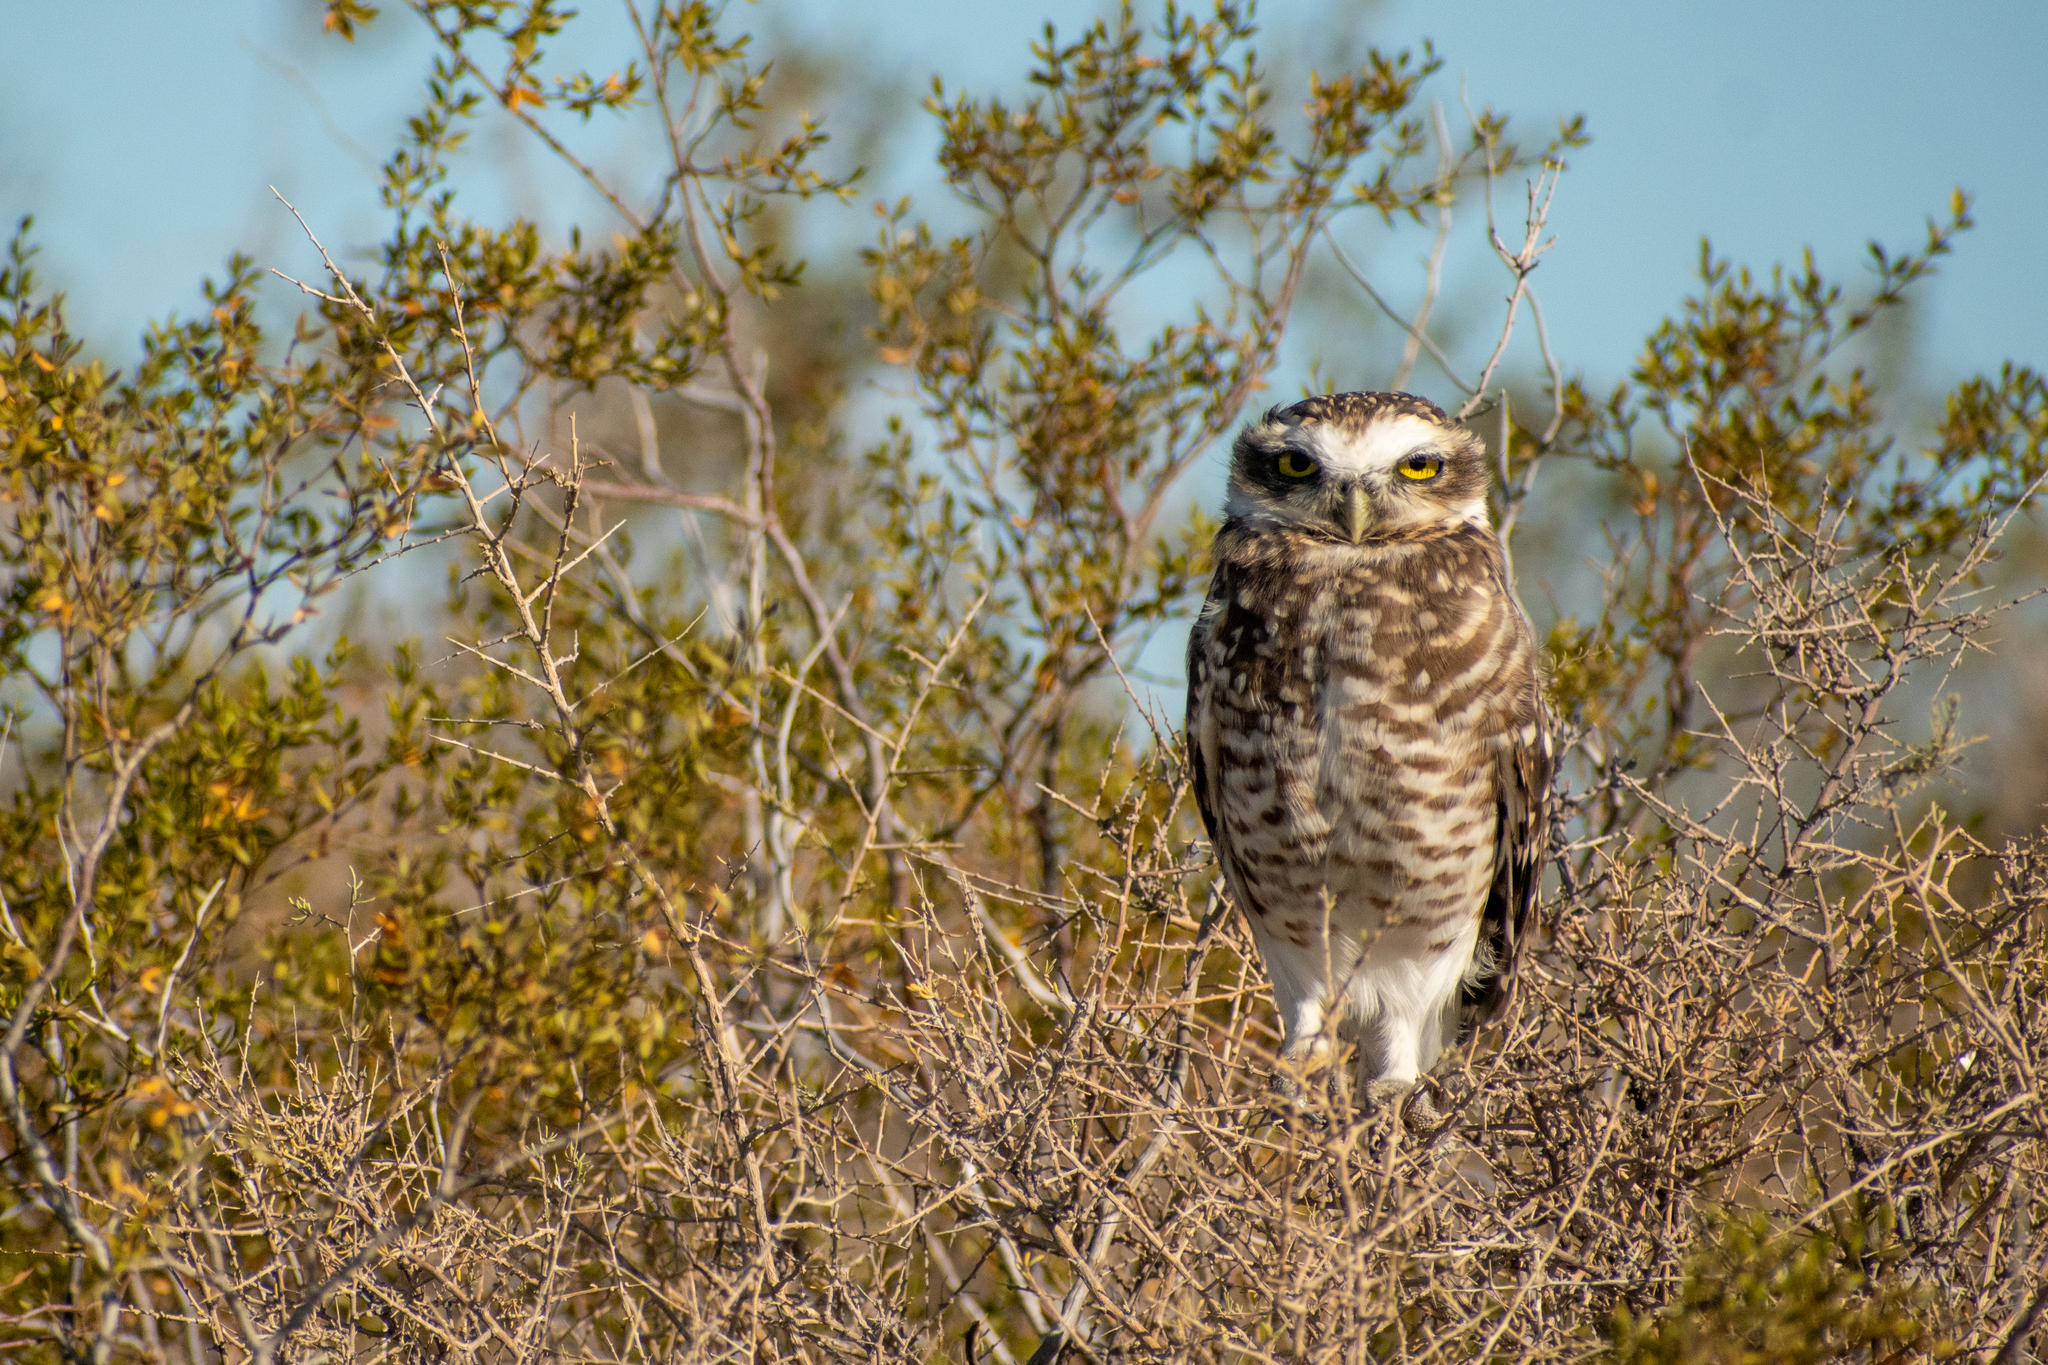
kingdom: Animalia
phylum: Chordata
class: Aves
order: Strigiformes
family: Strigidae
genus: Athene
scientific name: Athene cunicularia
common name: Burrowing owl
